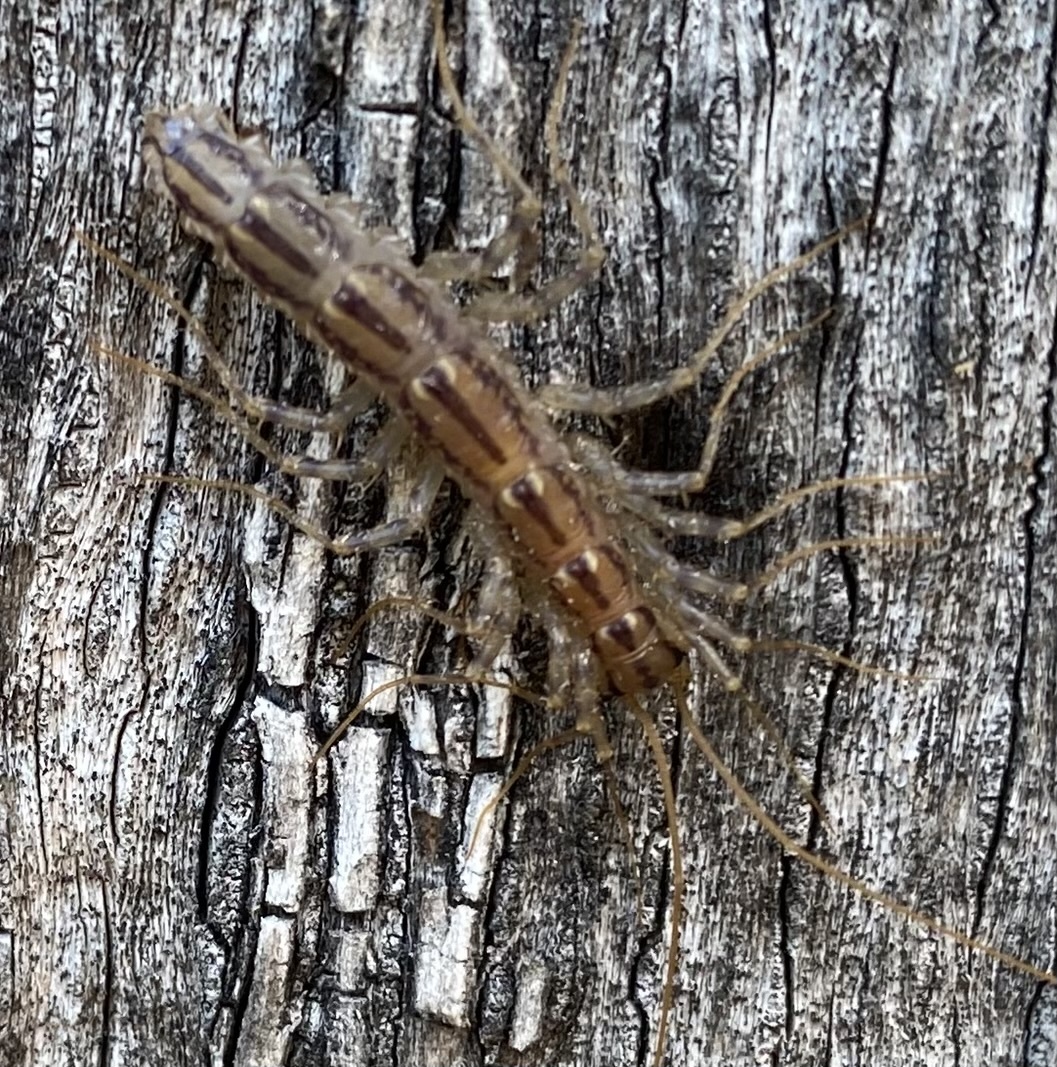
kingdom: Animalia
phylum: Arthropoda
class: Chilopoda
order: Scutigeromorpha
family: Scutigeridae
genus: Scutigera
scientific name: Scutigera coleoptrata
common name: House centipede
